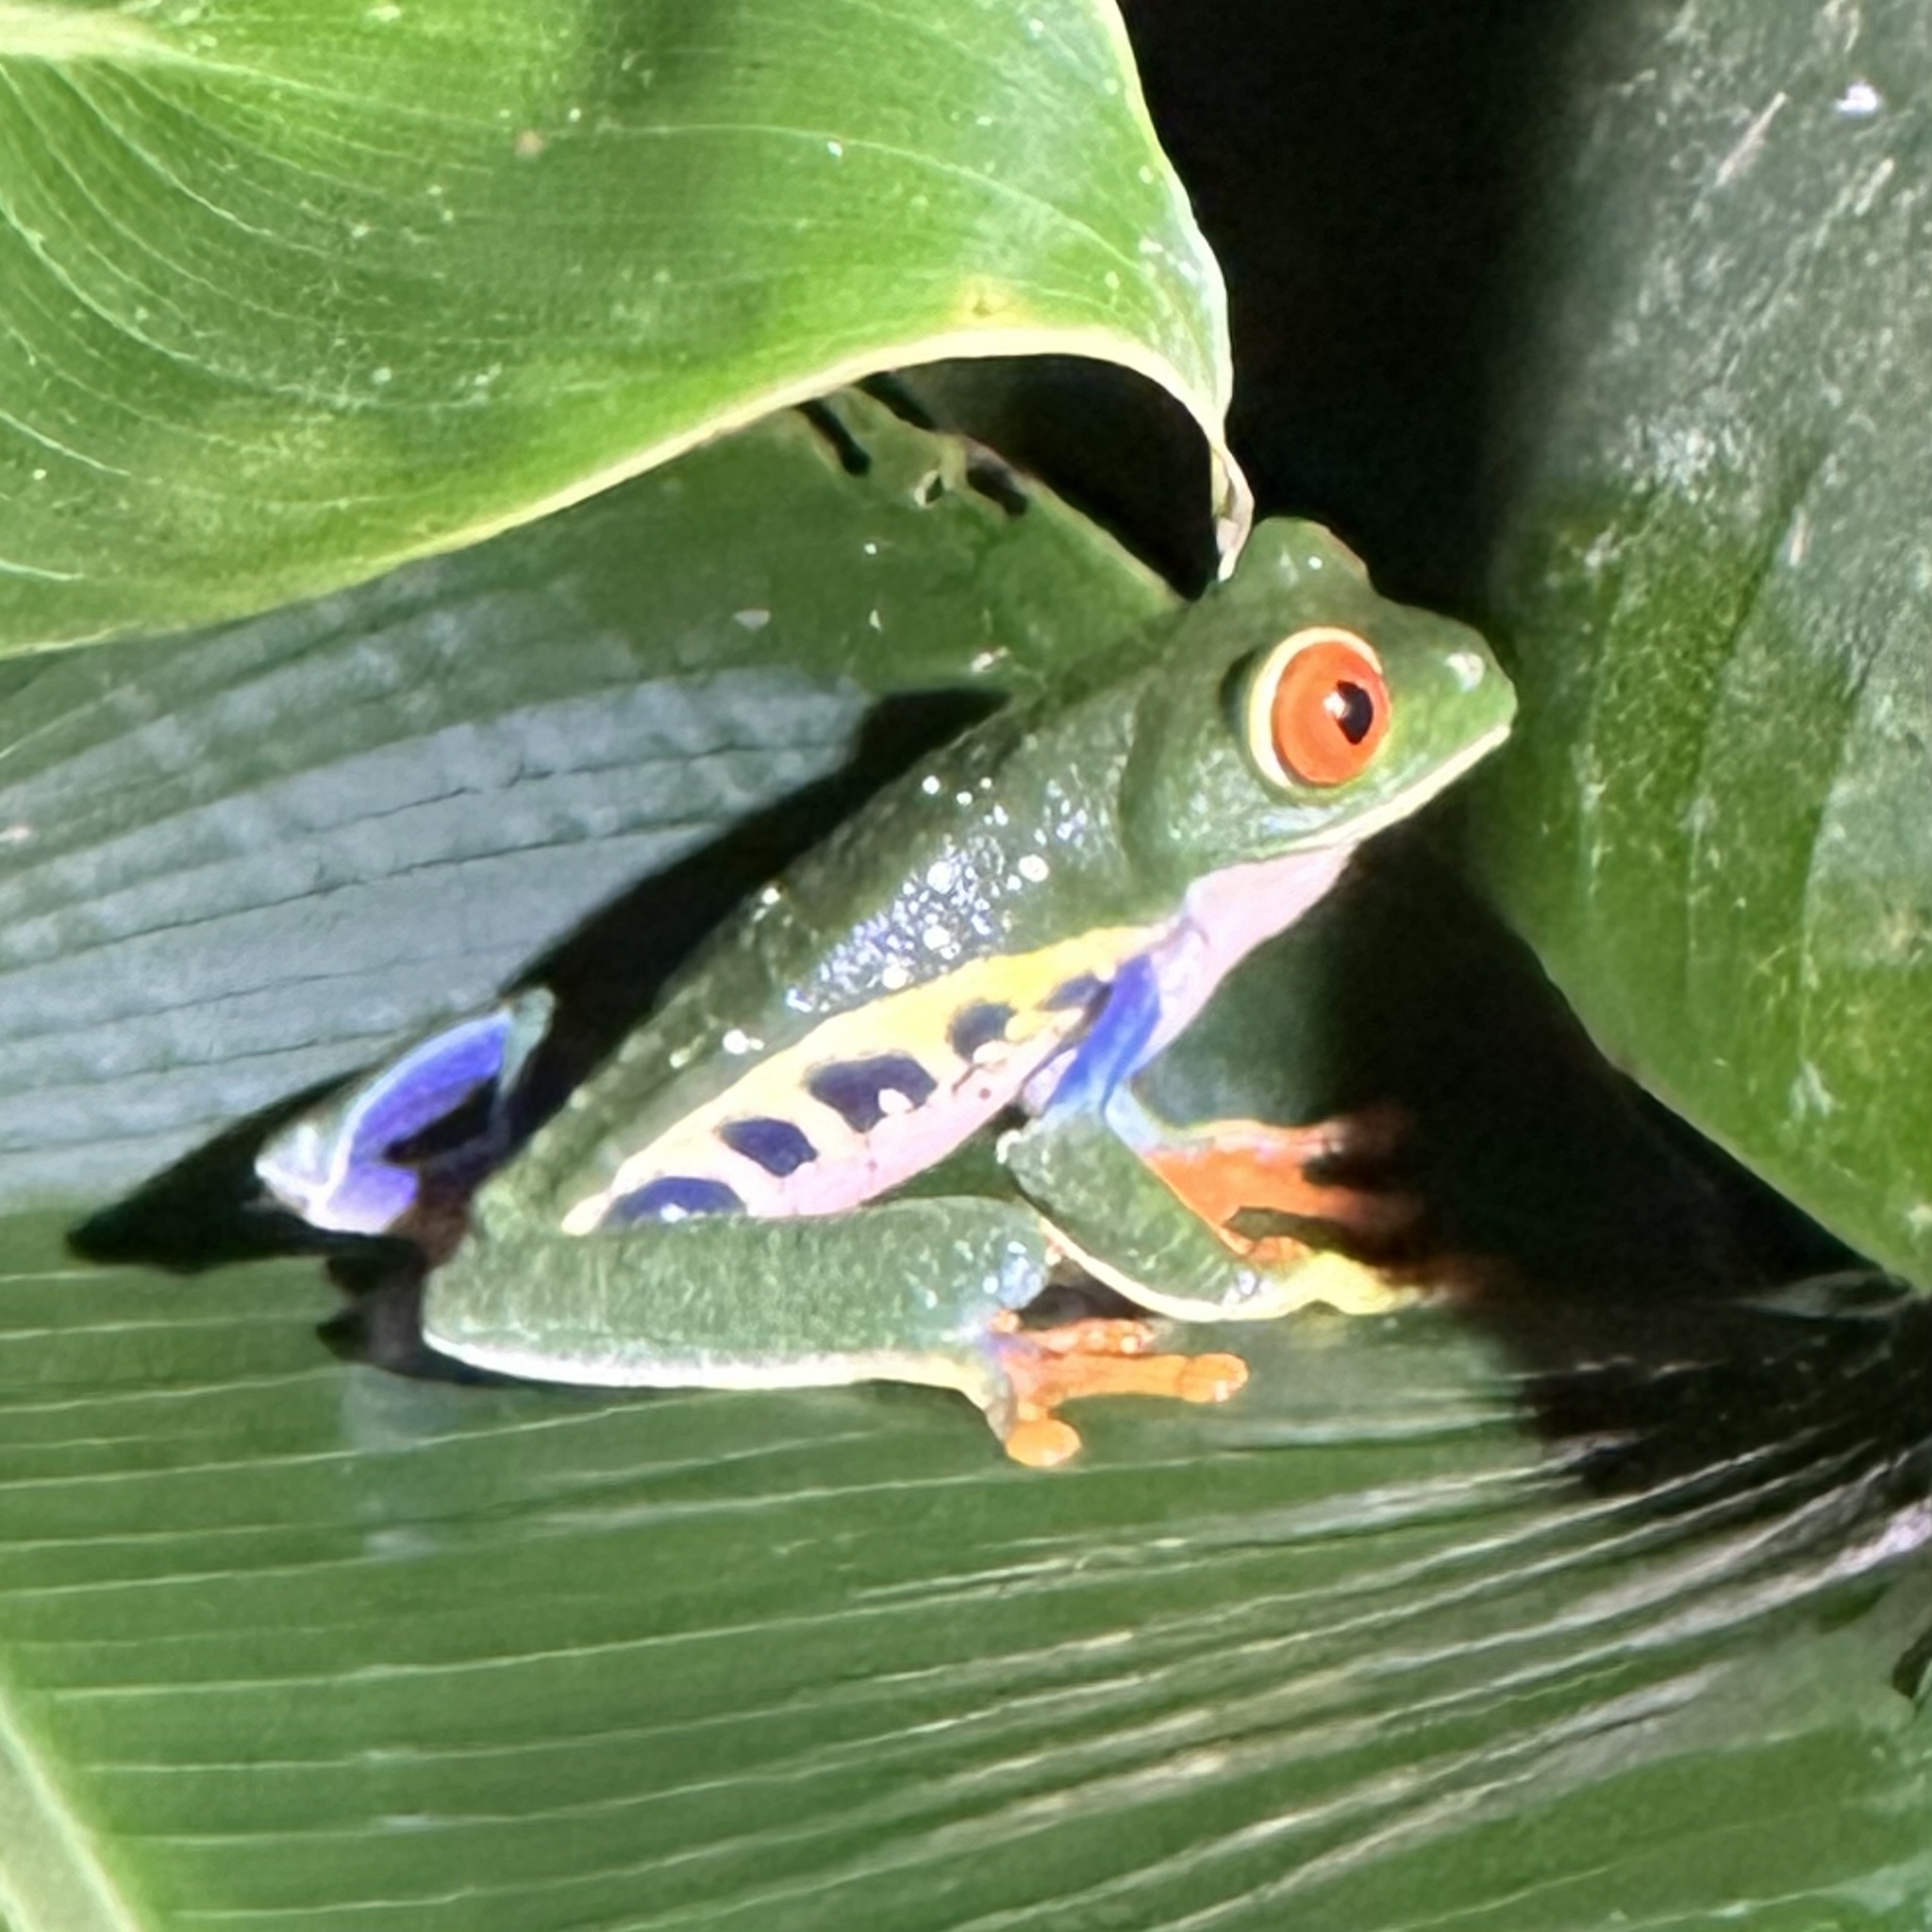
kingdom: Animalia
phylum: Chordata
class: Amphibia
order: Anura
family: Phyllomedusidae
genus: Agalychnis
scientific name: Agalychnis callidryas
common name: Red-eyed treefrog
